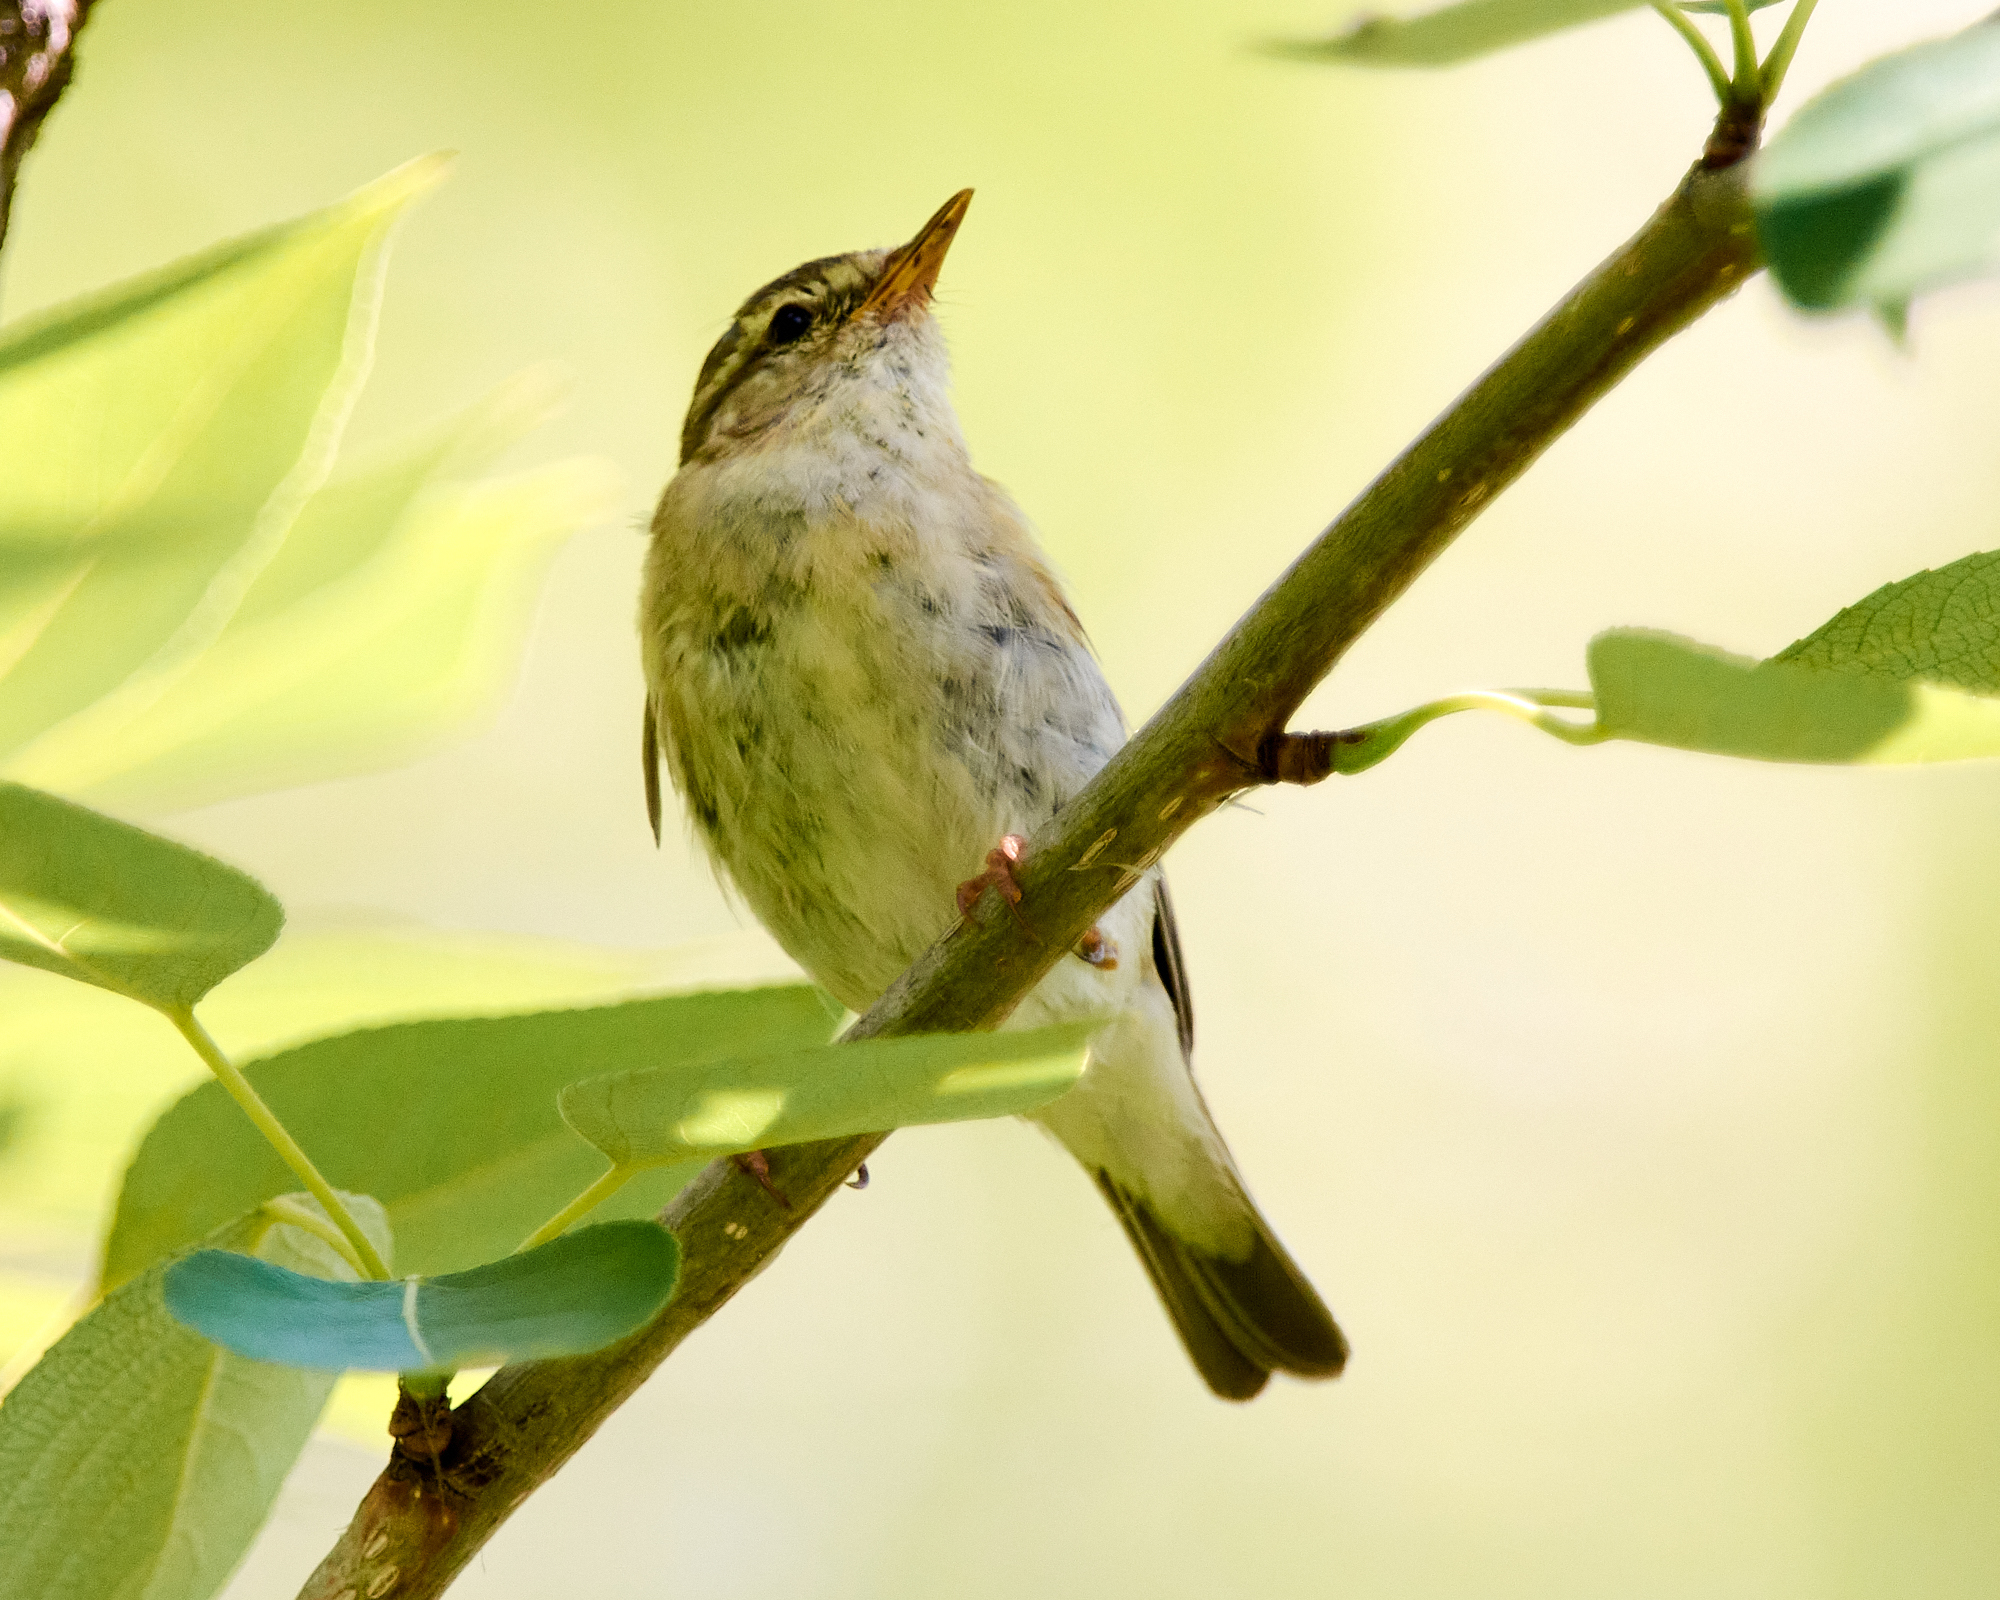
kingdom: Animalia
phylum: Chordata
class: Aves
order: Passeriformes
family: Phylloscopidae
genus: Phylloscopus
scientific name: Phylloscopus trochilus
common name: Willow warbler
